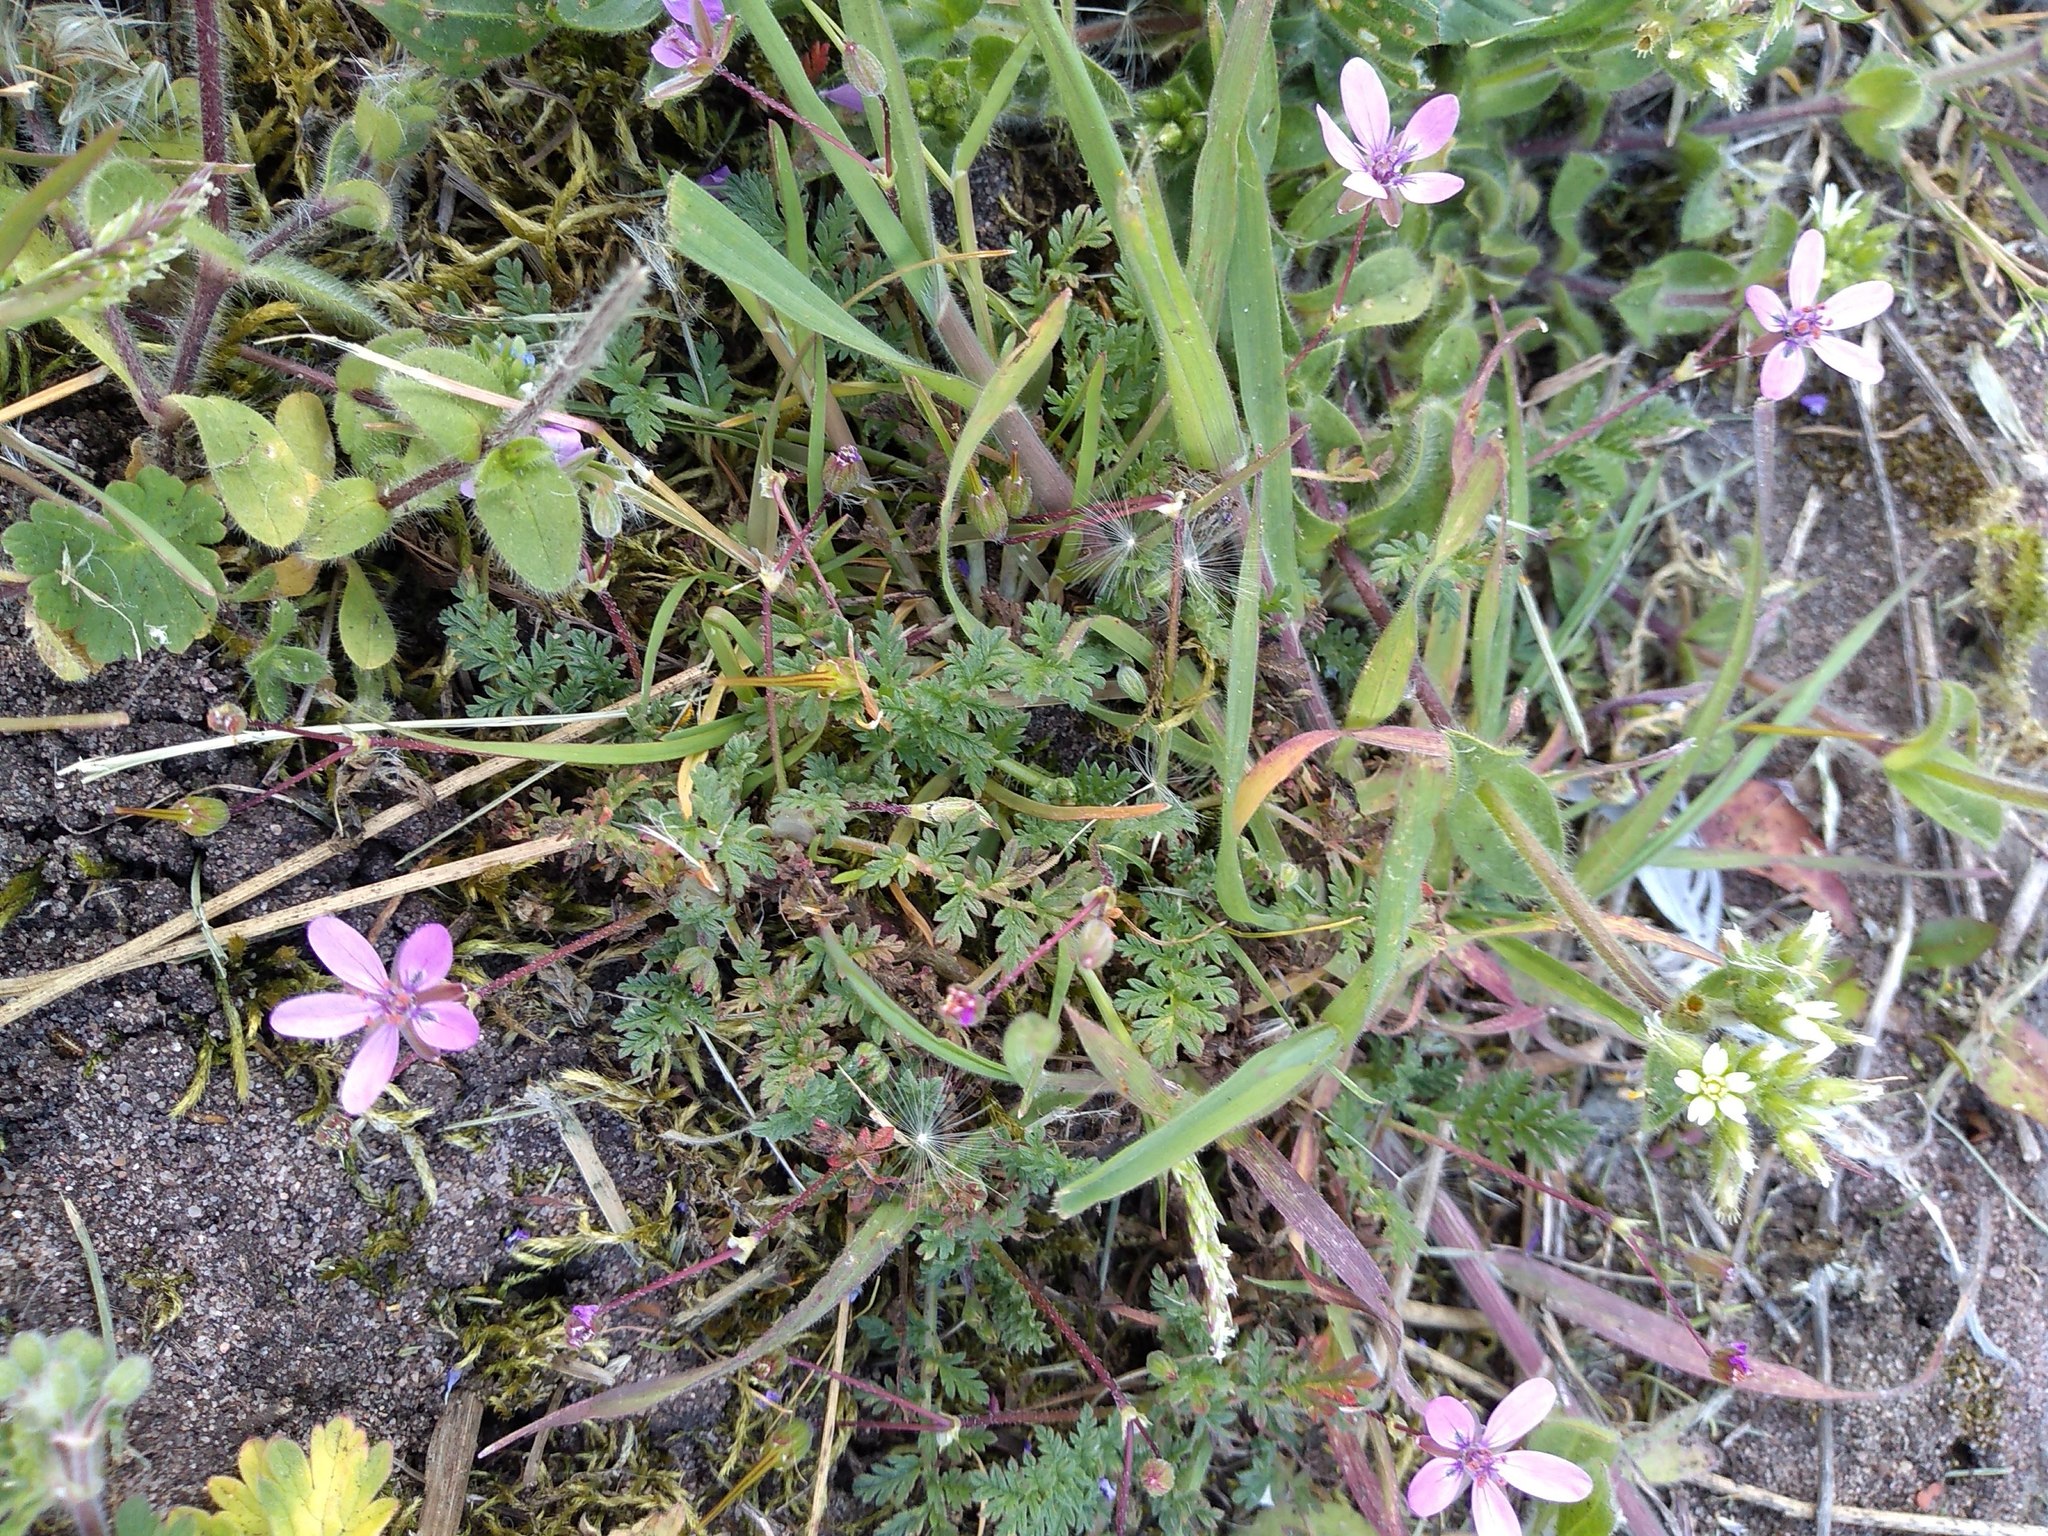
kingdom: Plantae
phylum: Tracheophyta
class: Magnoliopsida
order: Geraniales
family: Geraniaceae
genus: Erodium
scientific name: Erodium cicutarium
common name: Common stork's-bill
